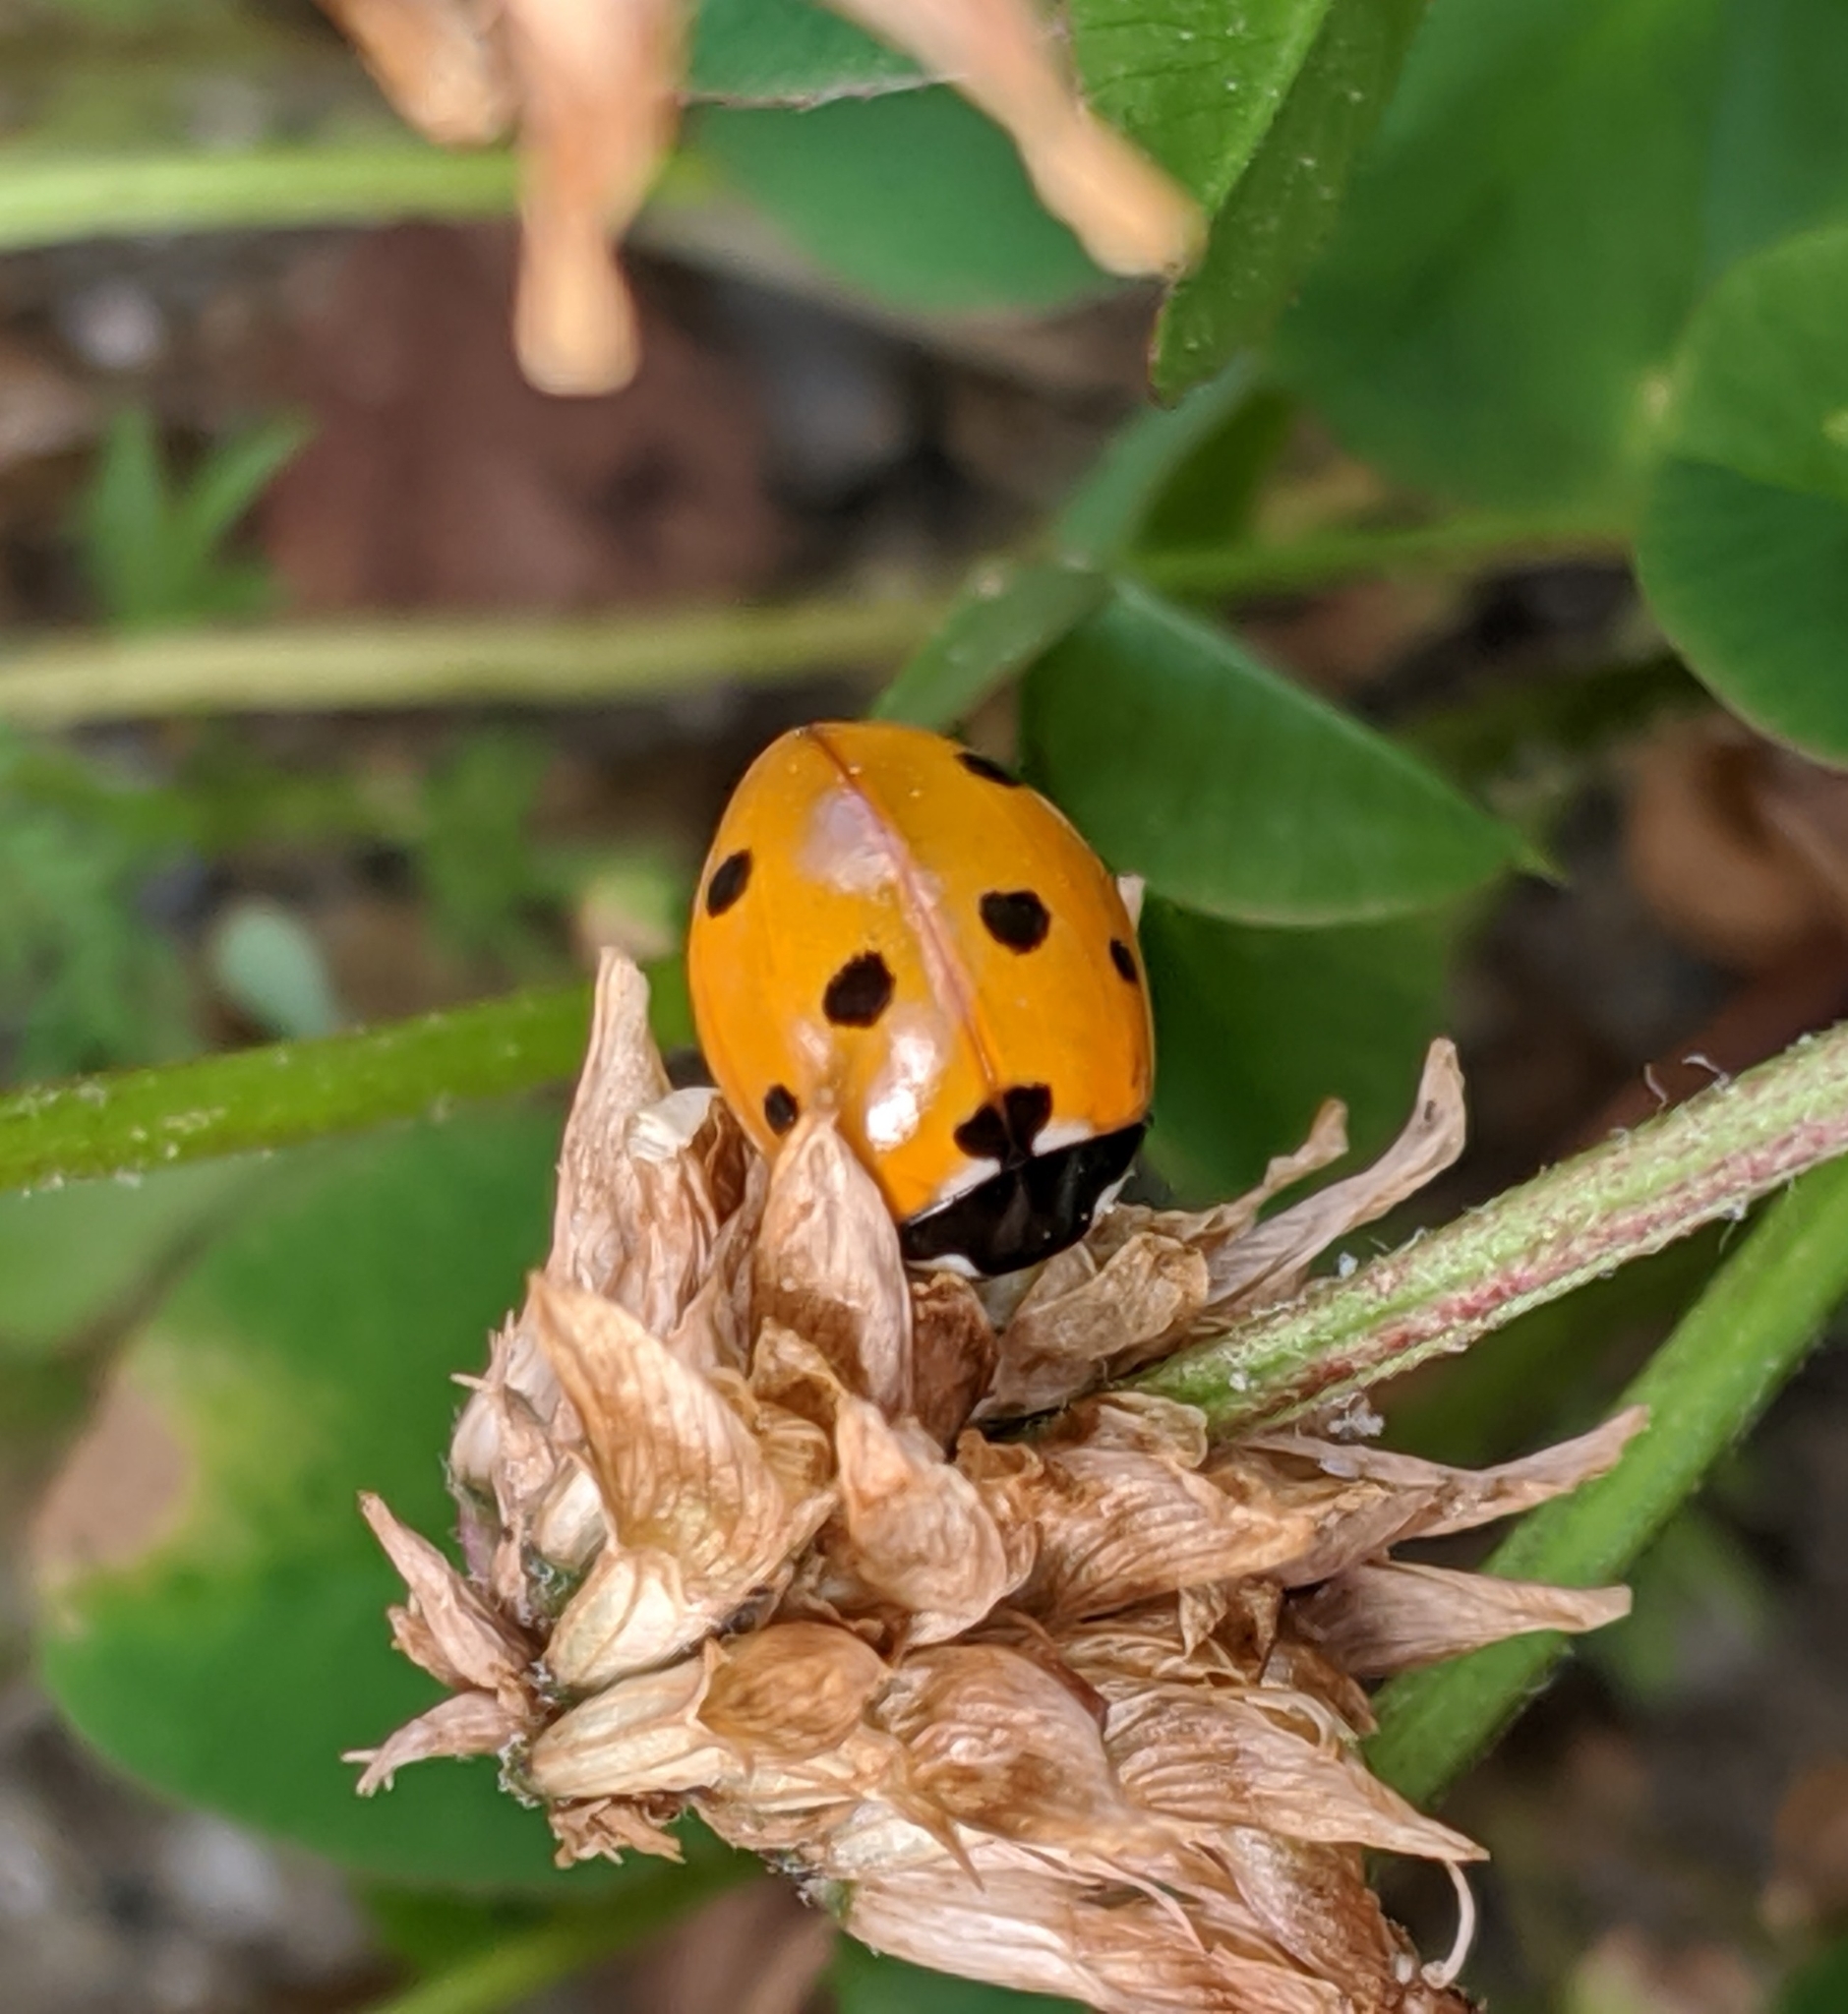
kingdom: Animalia
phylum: Arthropoda
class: Insecta
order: Coleoptera
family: Coccinellidae
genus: Coccinella
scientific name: Coccinella septempunctata
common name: Sevenspotted lady beetle
